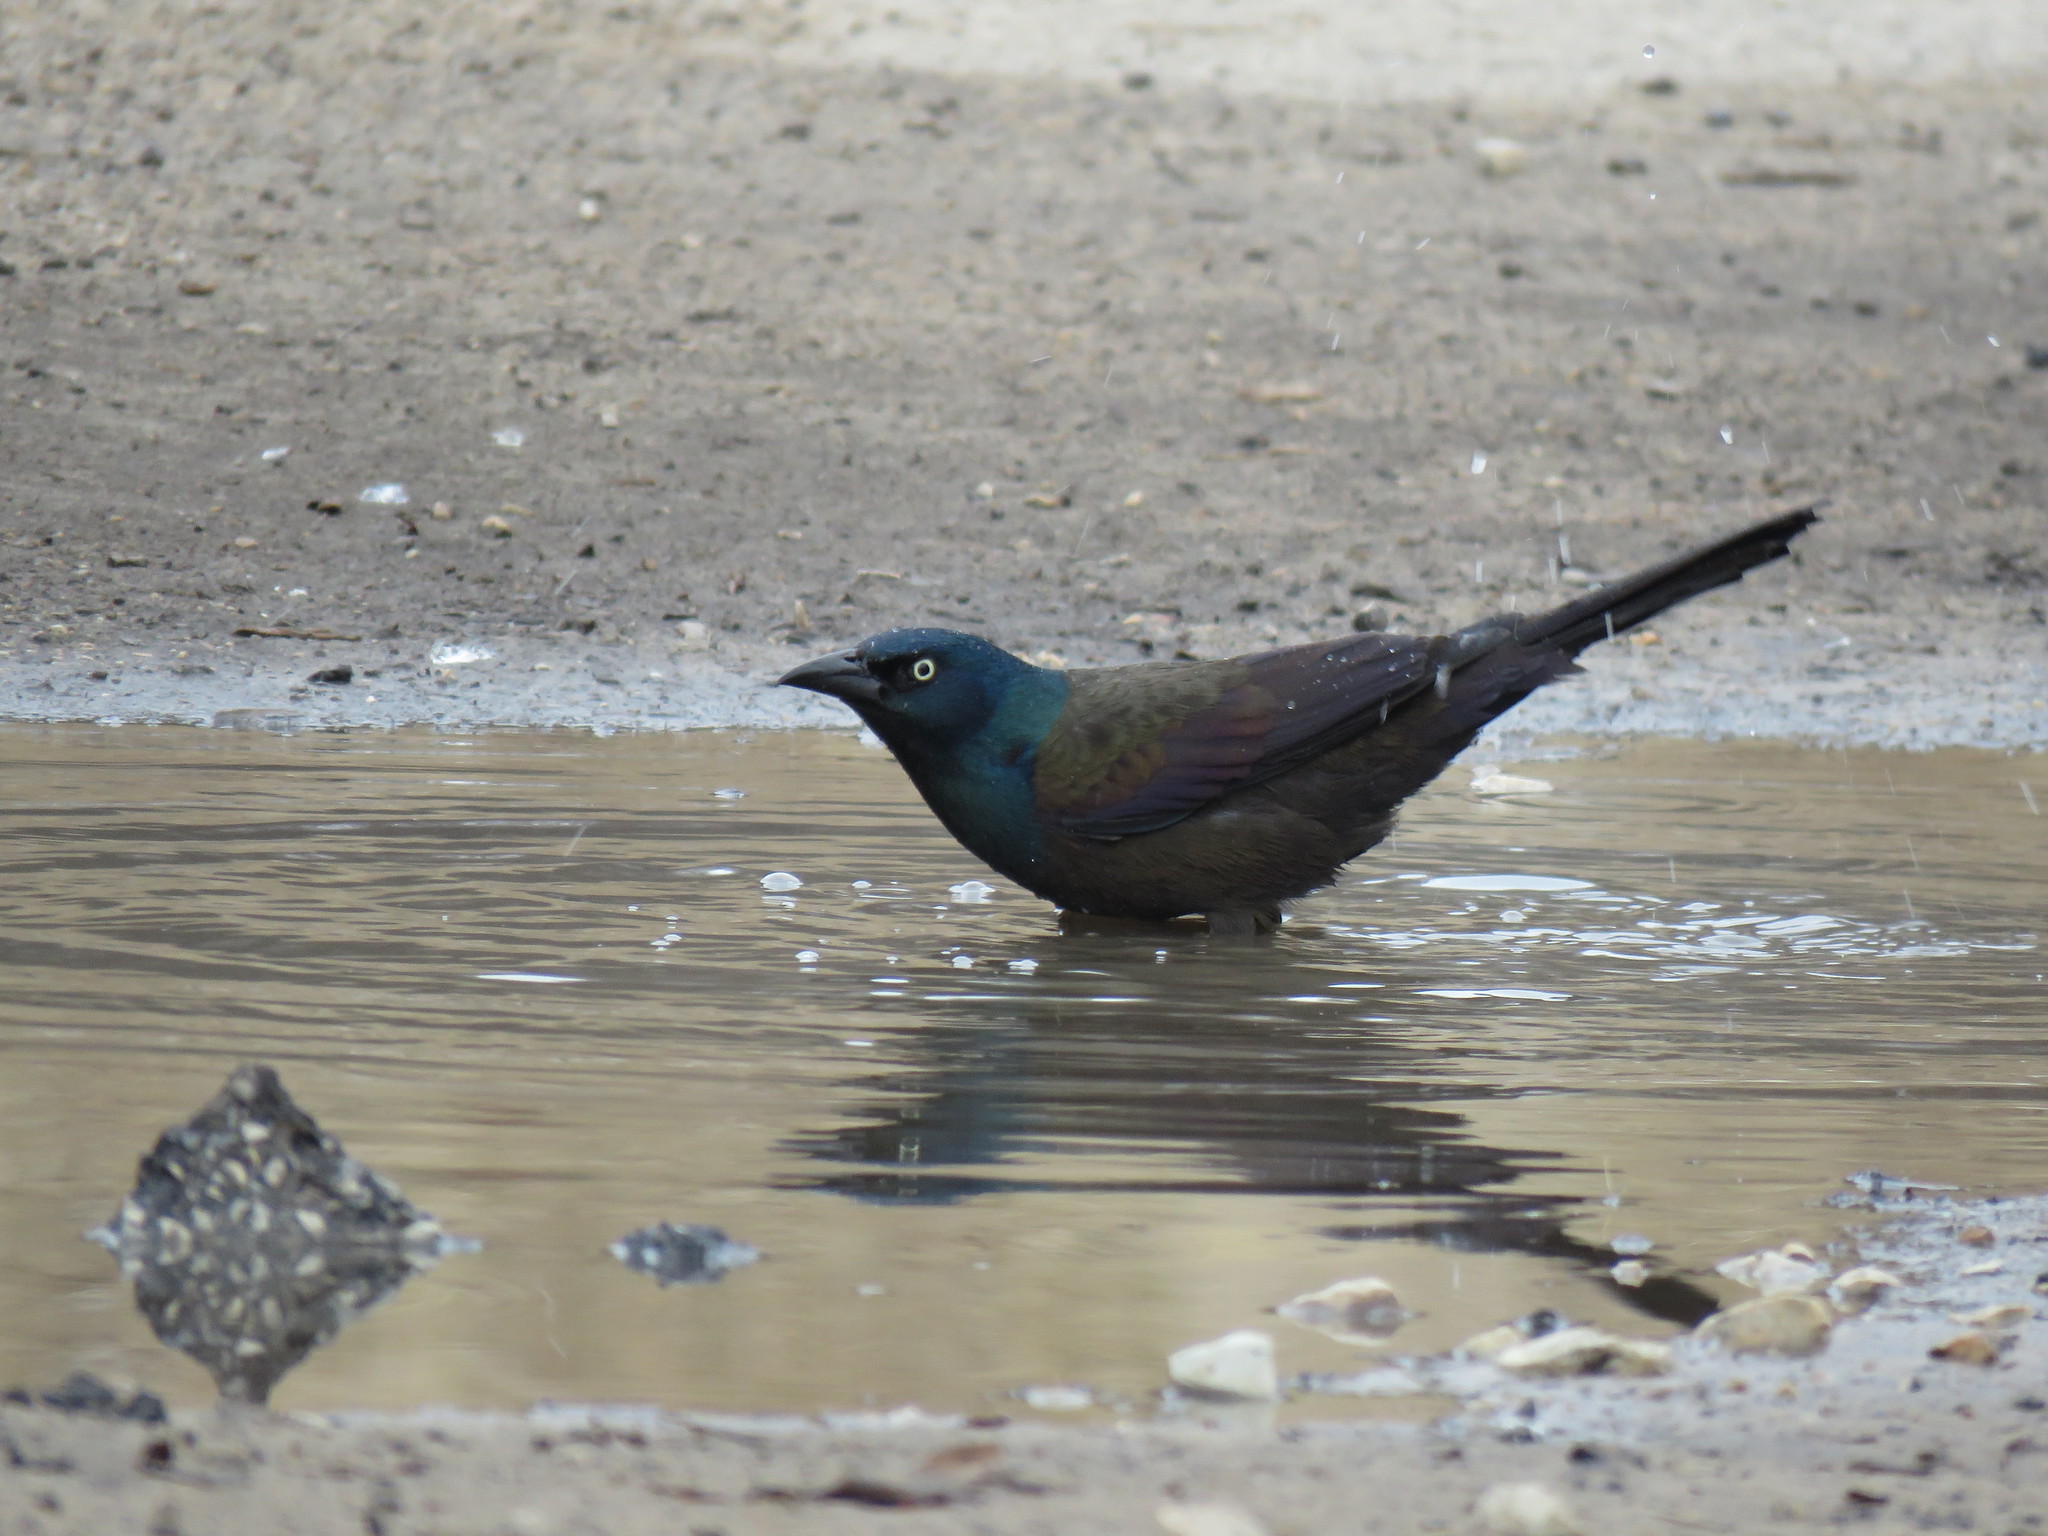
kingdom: Animalia
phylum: Chordata
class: Aves
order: Passeriformes
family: Icteridae
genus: Quiscalus
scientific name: Quiscalus quiscula
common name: Common grackle
